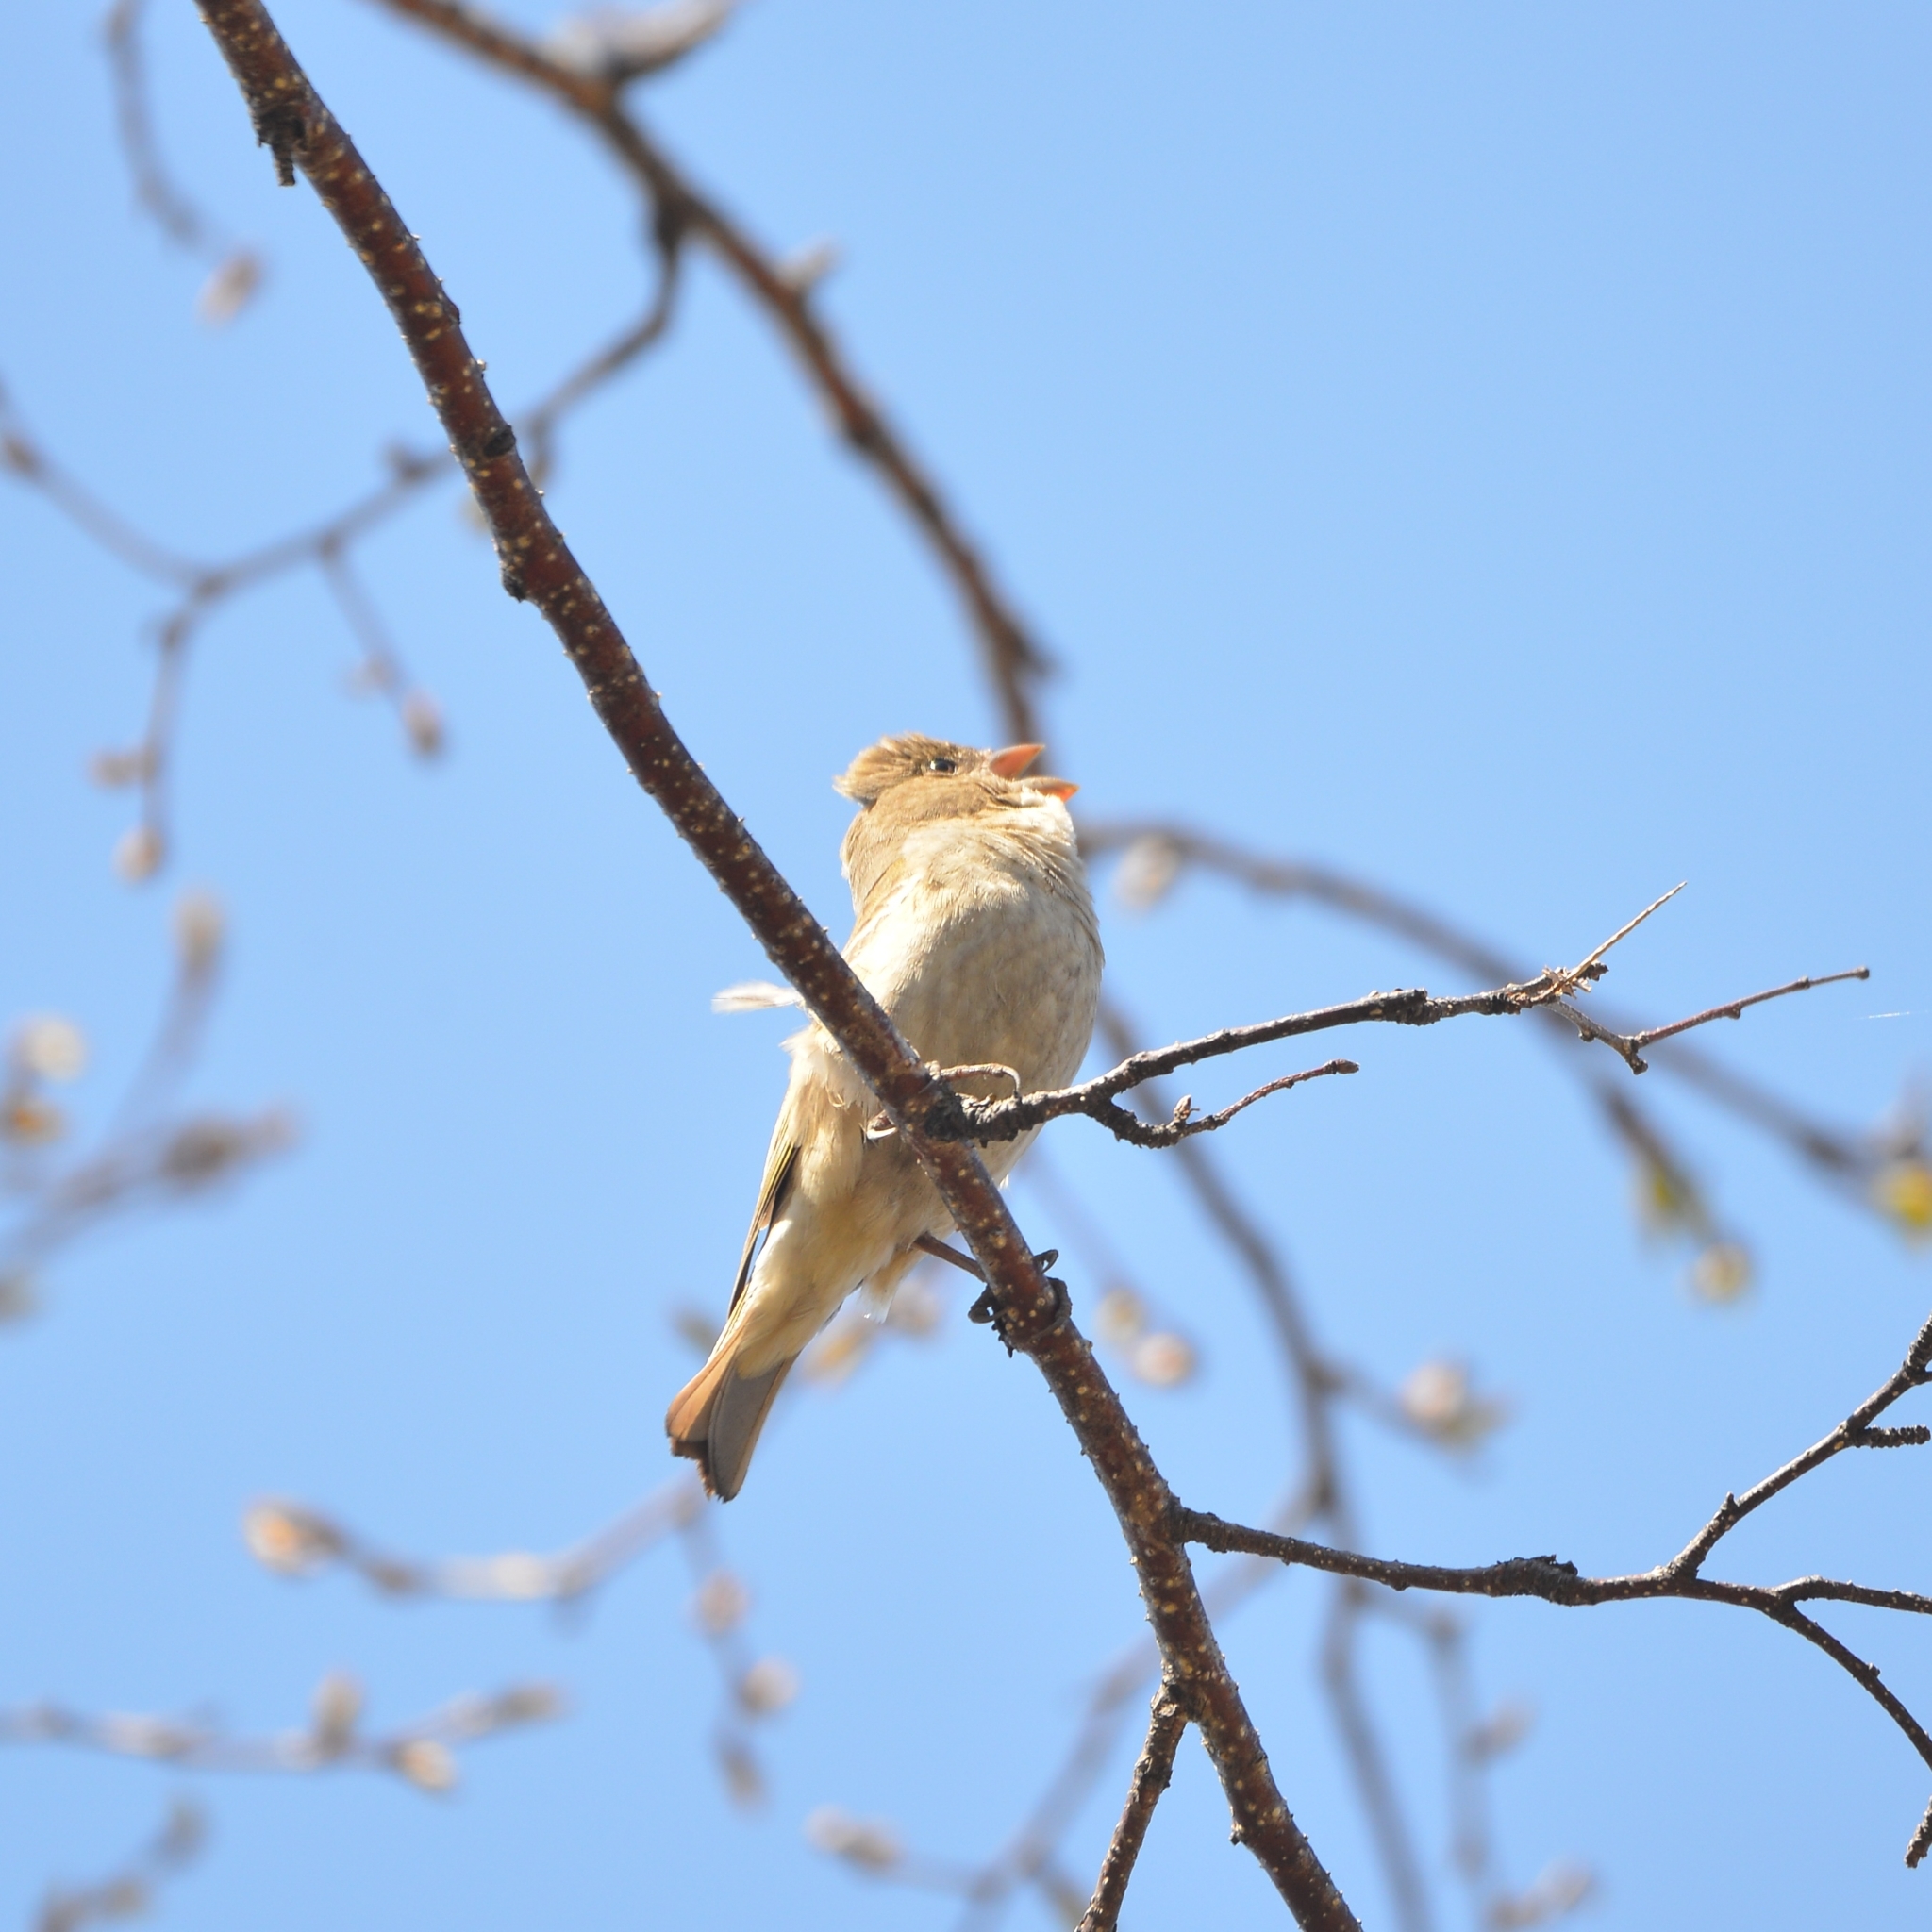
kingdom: Animalia
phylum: Chordata
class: Aves
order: Passeriformes
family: Fringillidae
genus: Carpodacus
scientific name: Carpodacus erythrinus
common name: Common rosefinch
